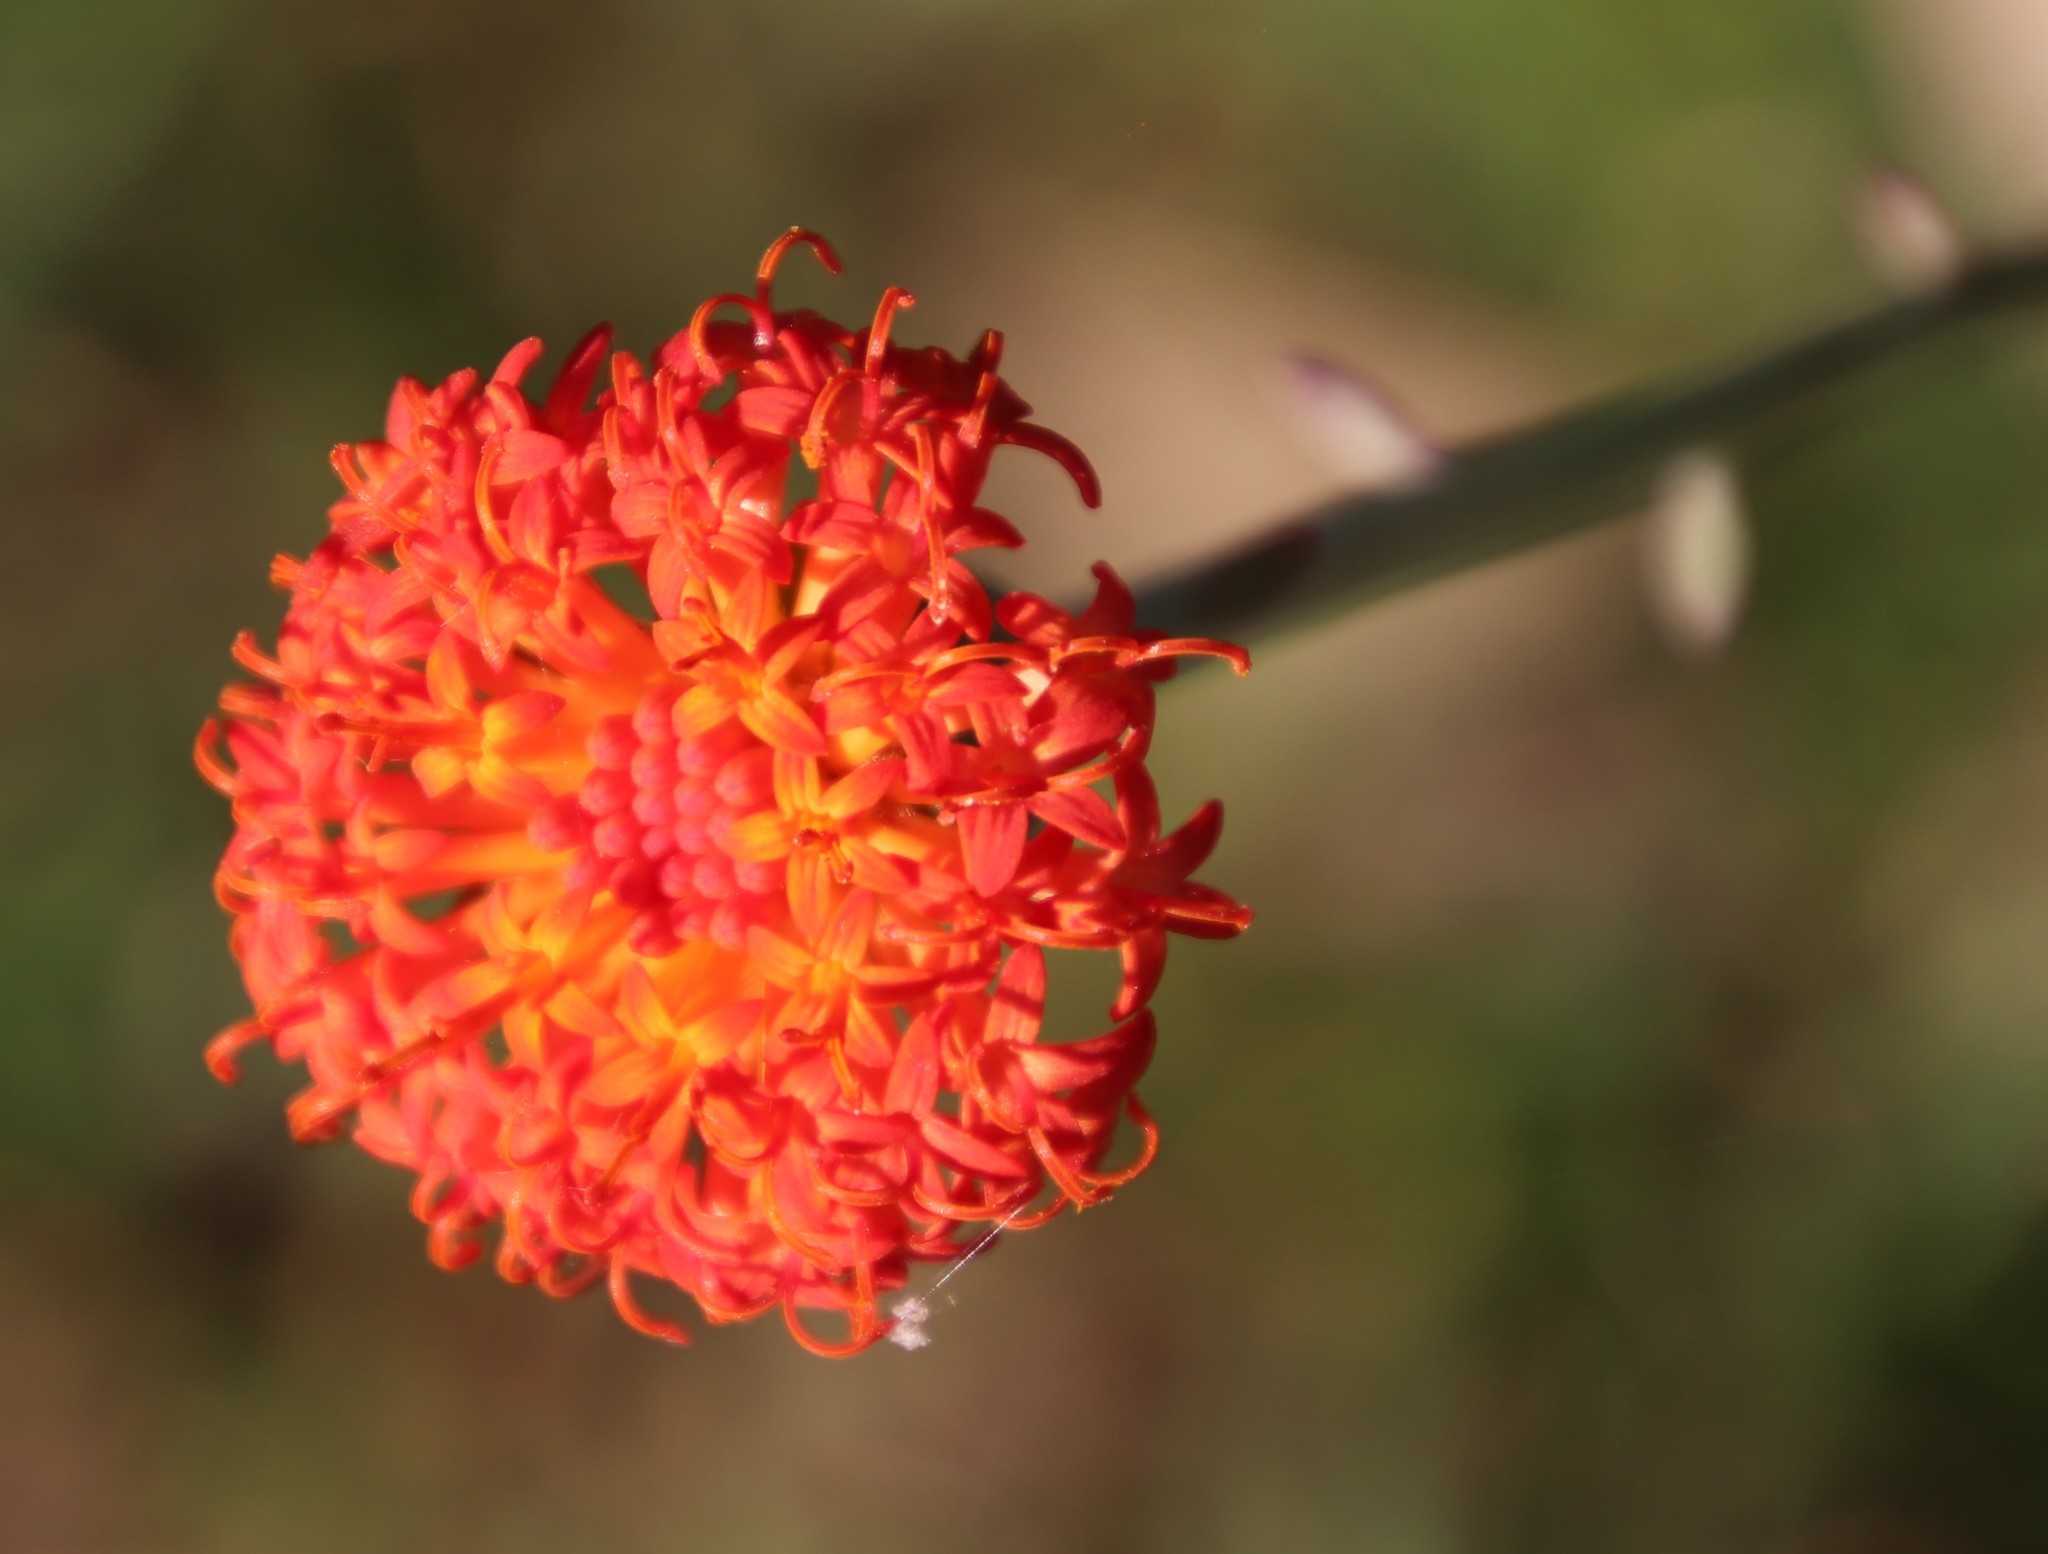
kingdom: Plantae
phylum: Tracheophyta
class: Magnoliopsida
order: Asterales
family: Asteraceae
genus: Kleinia
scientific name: Kleinia fulgens
